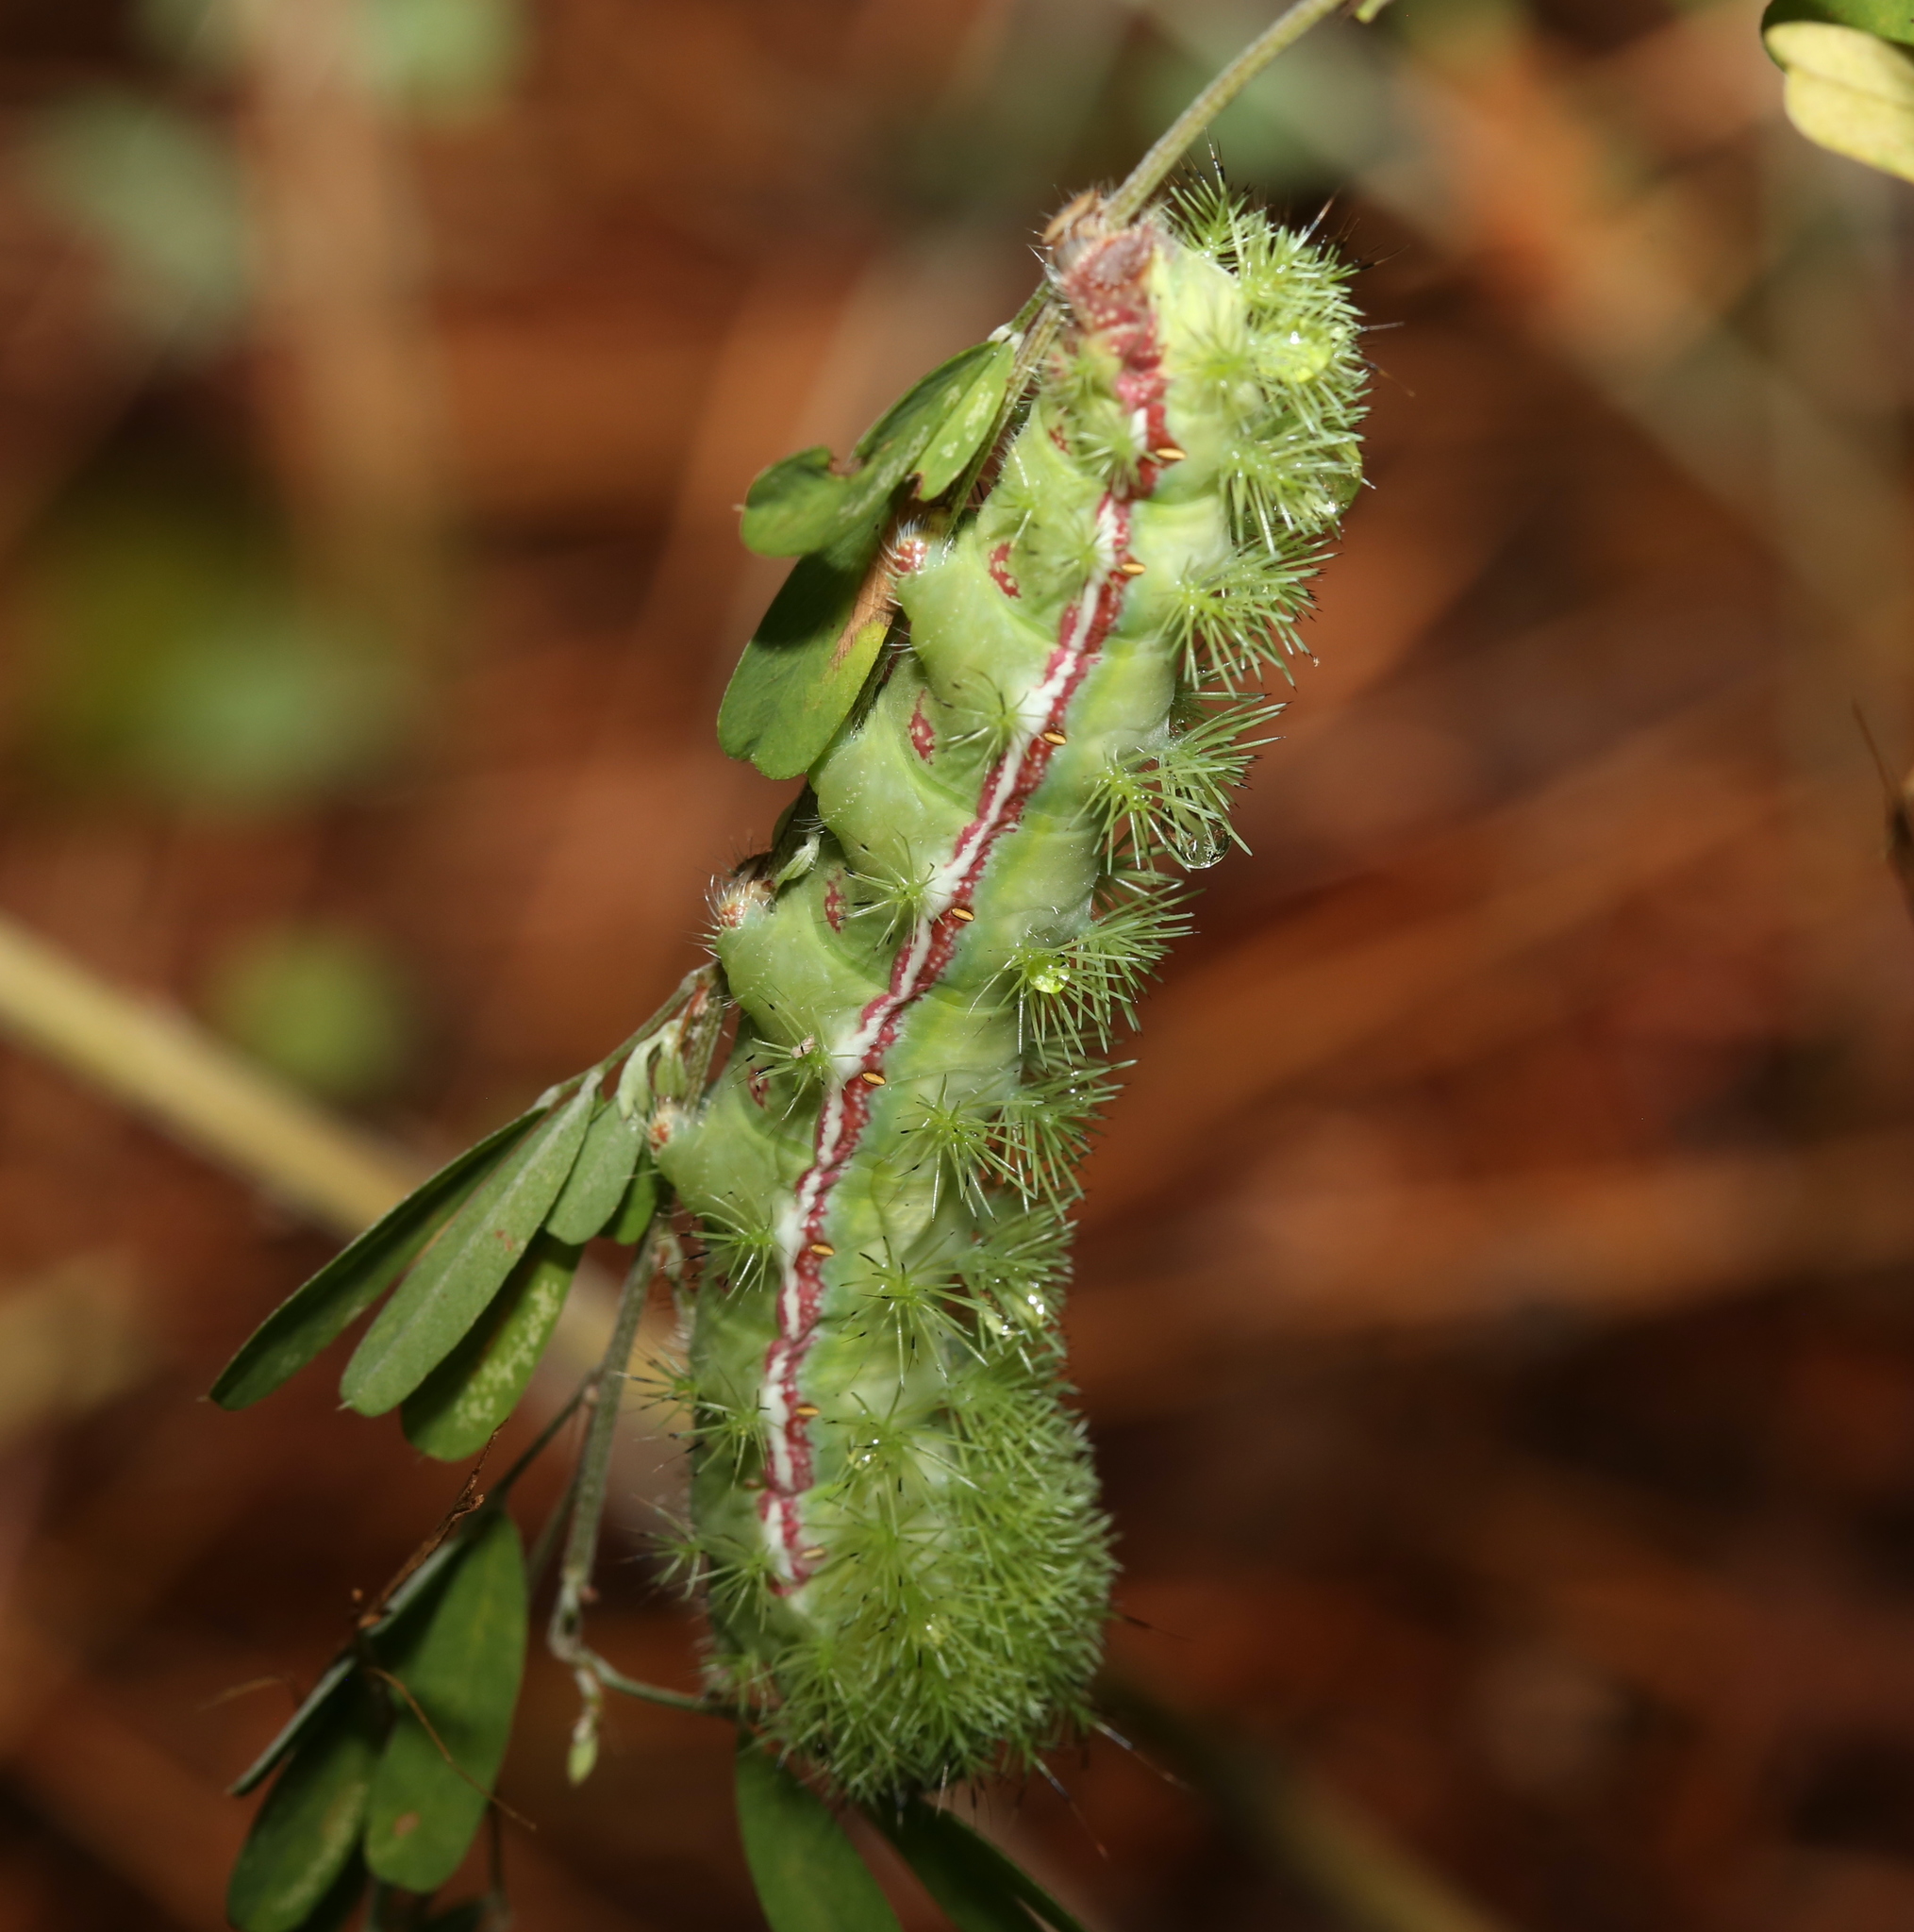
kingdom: Animalia
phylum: Arthropoda
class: Insecta
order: Lepidoptera
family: Saturniidae
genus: Automeris
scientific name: Automeris io
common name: Io moth
